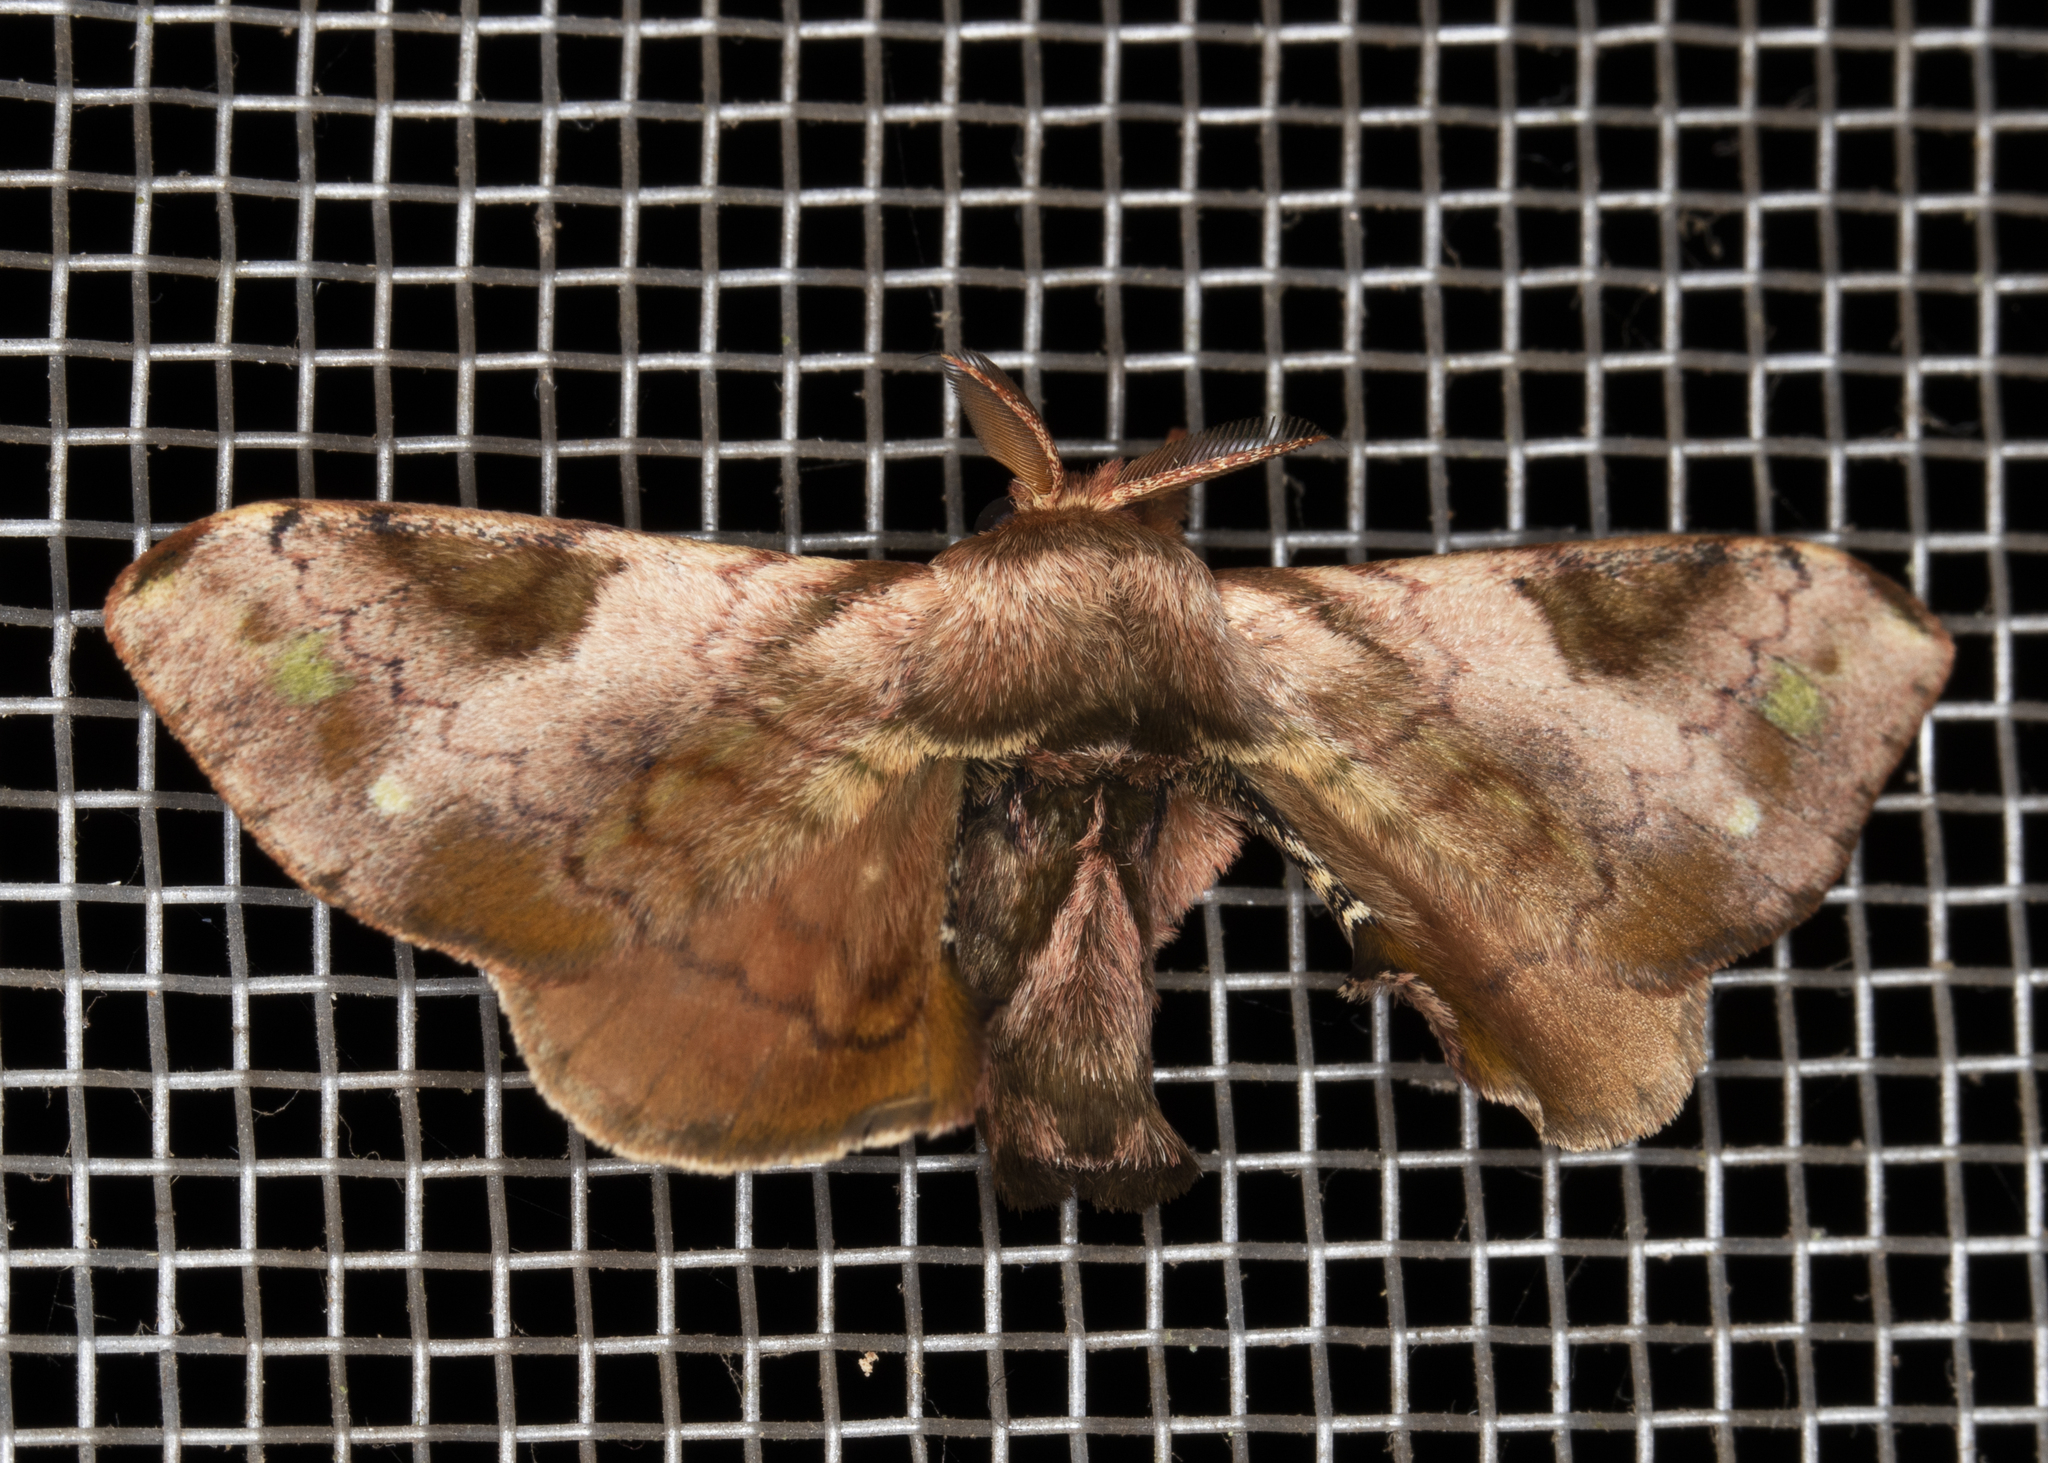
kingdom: Animalia
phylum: Arthropoda
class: Insecta
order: Lepidoptera
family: Bombycidae
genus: Epia
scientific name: Epia picta
